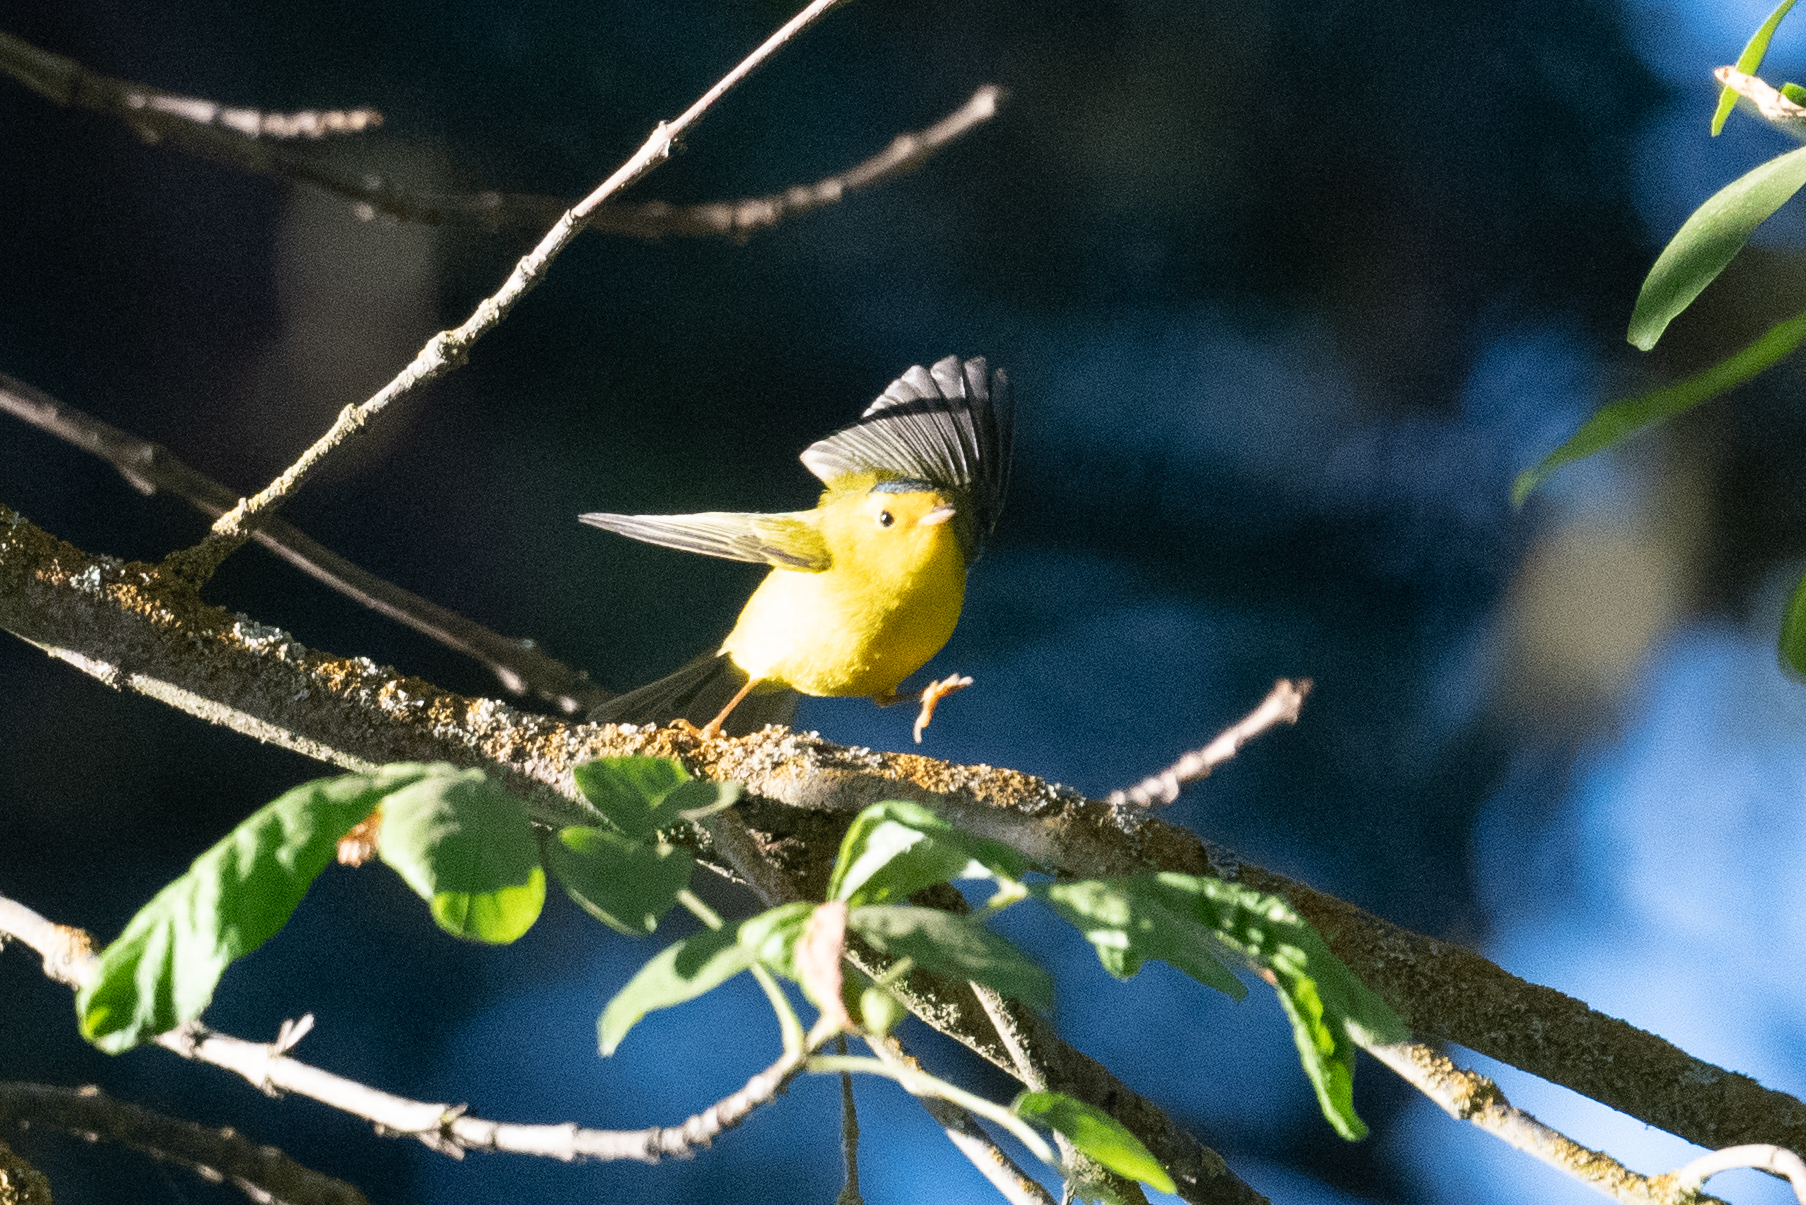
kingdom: Animalia
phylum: Chordata
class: Aves
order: Passeriformes
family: Parulidae
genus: Cardellina
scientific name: Cardellina pusilla
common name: Wilson's warbler
